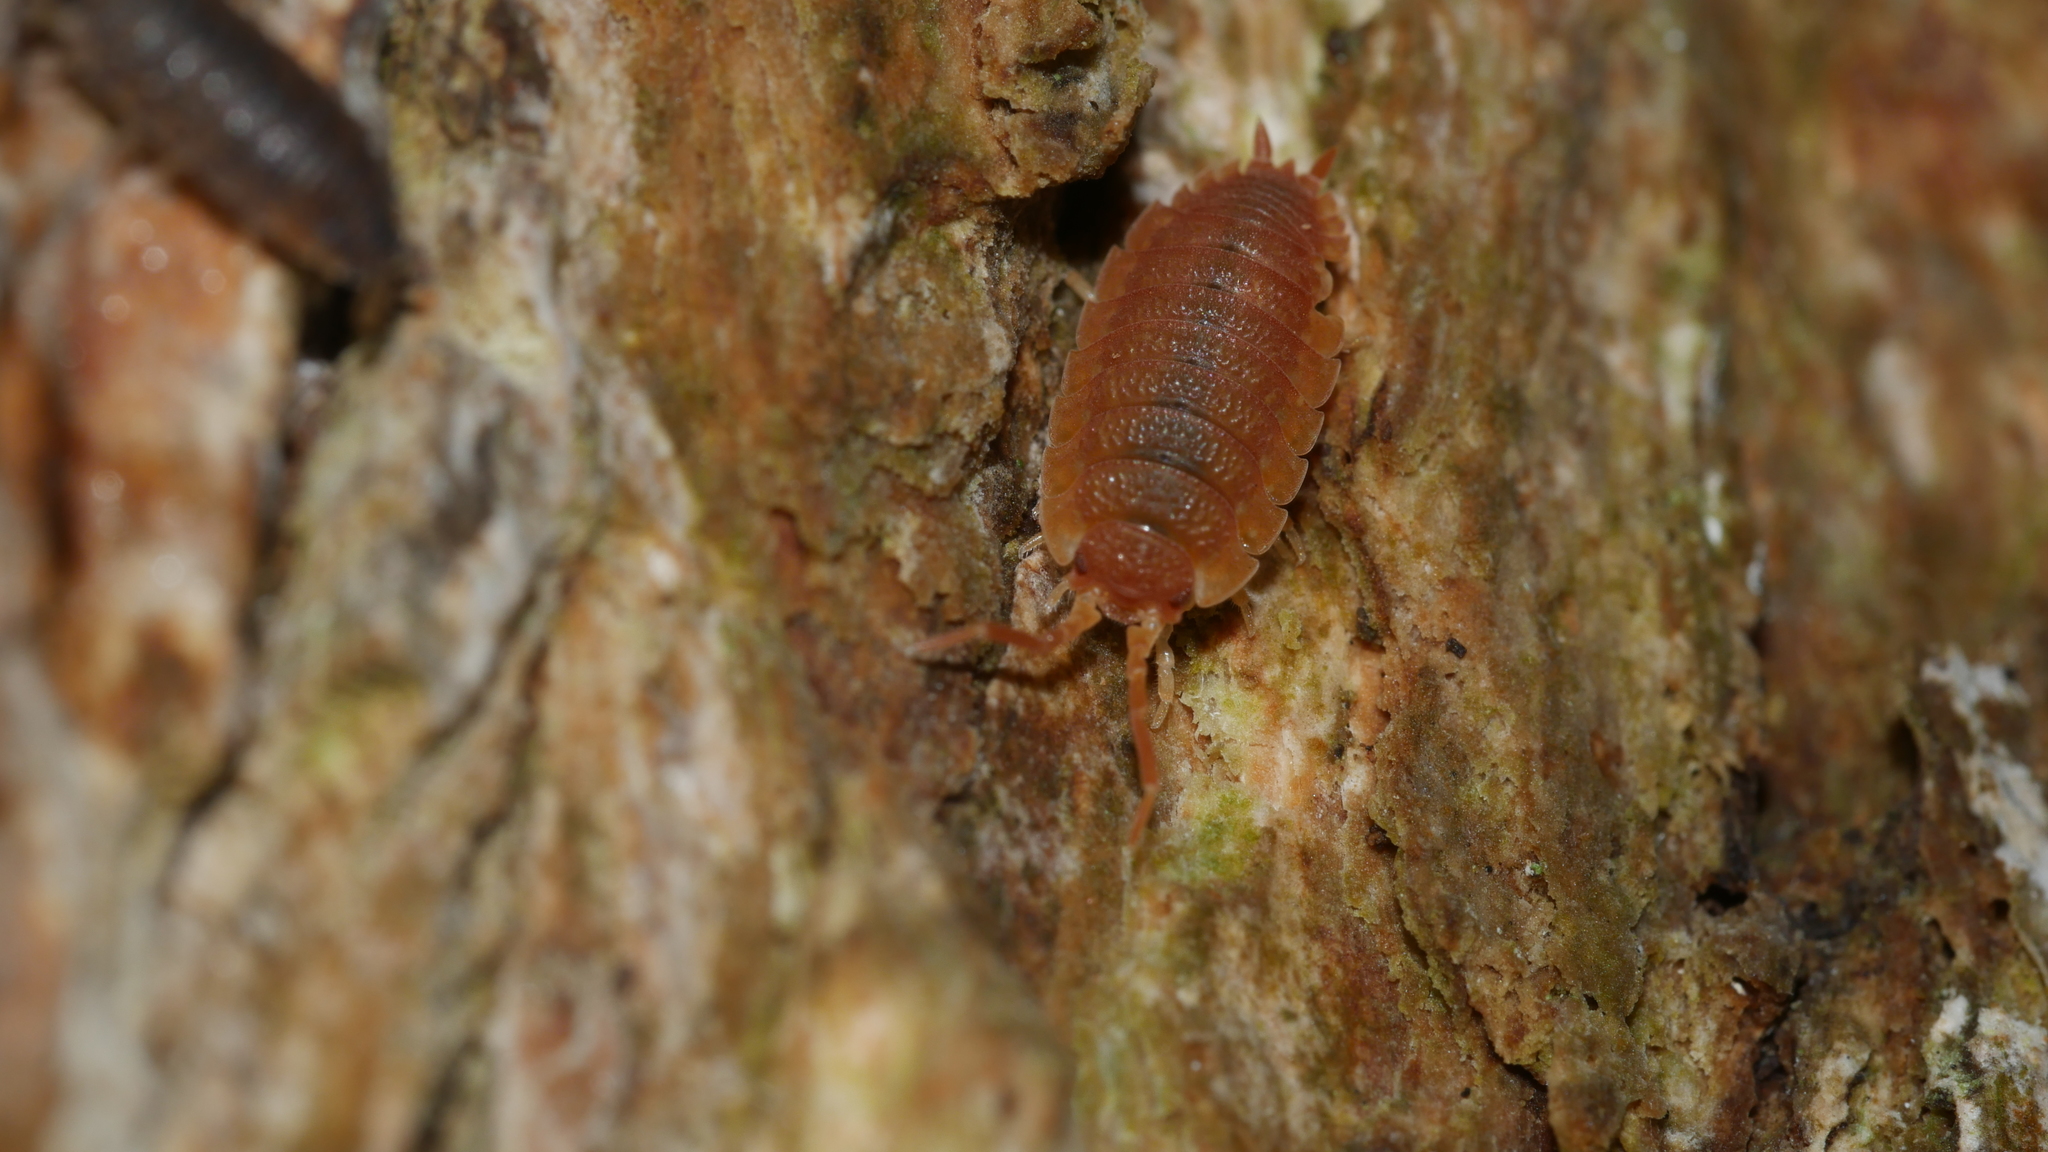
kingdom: Animalia
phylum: Arthropoda
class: Malacostraca
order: Isopoda
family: Porcellionidae
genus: Porcellio
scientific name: Porcellio scaber
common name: Common rough woodlouse
